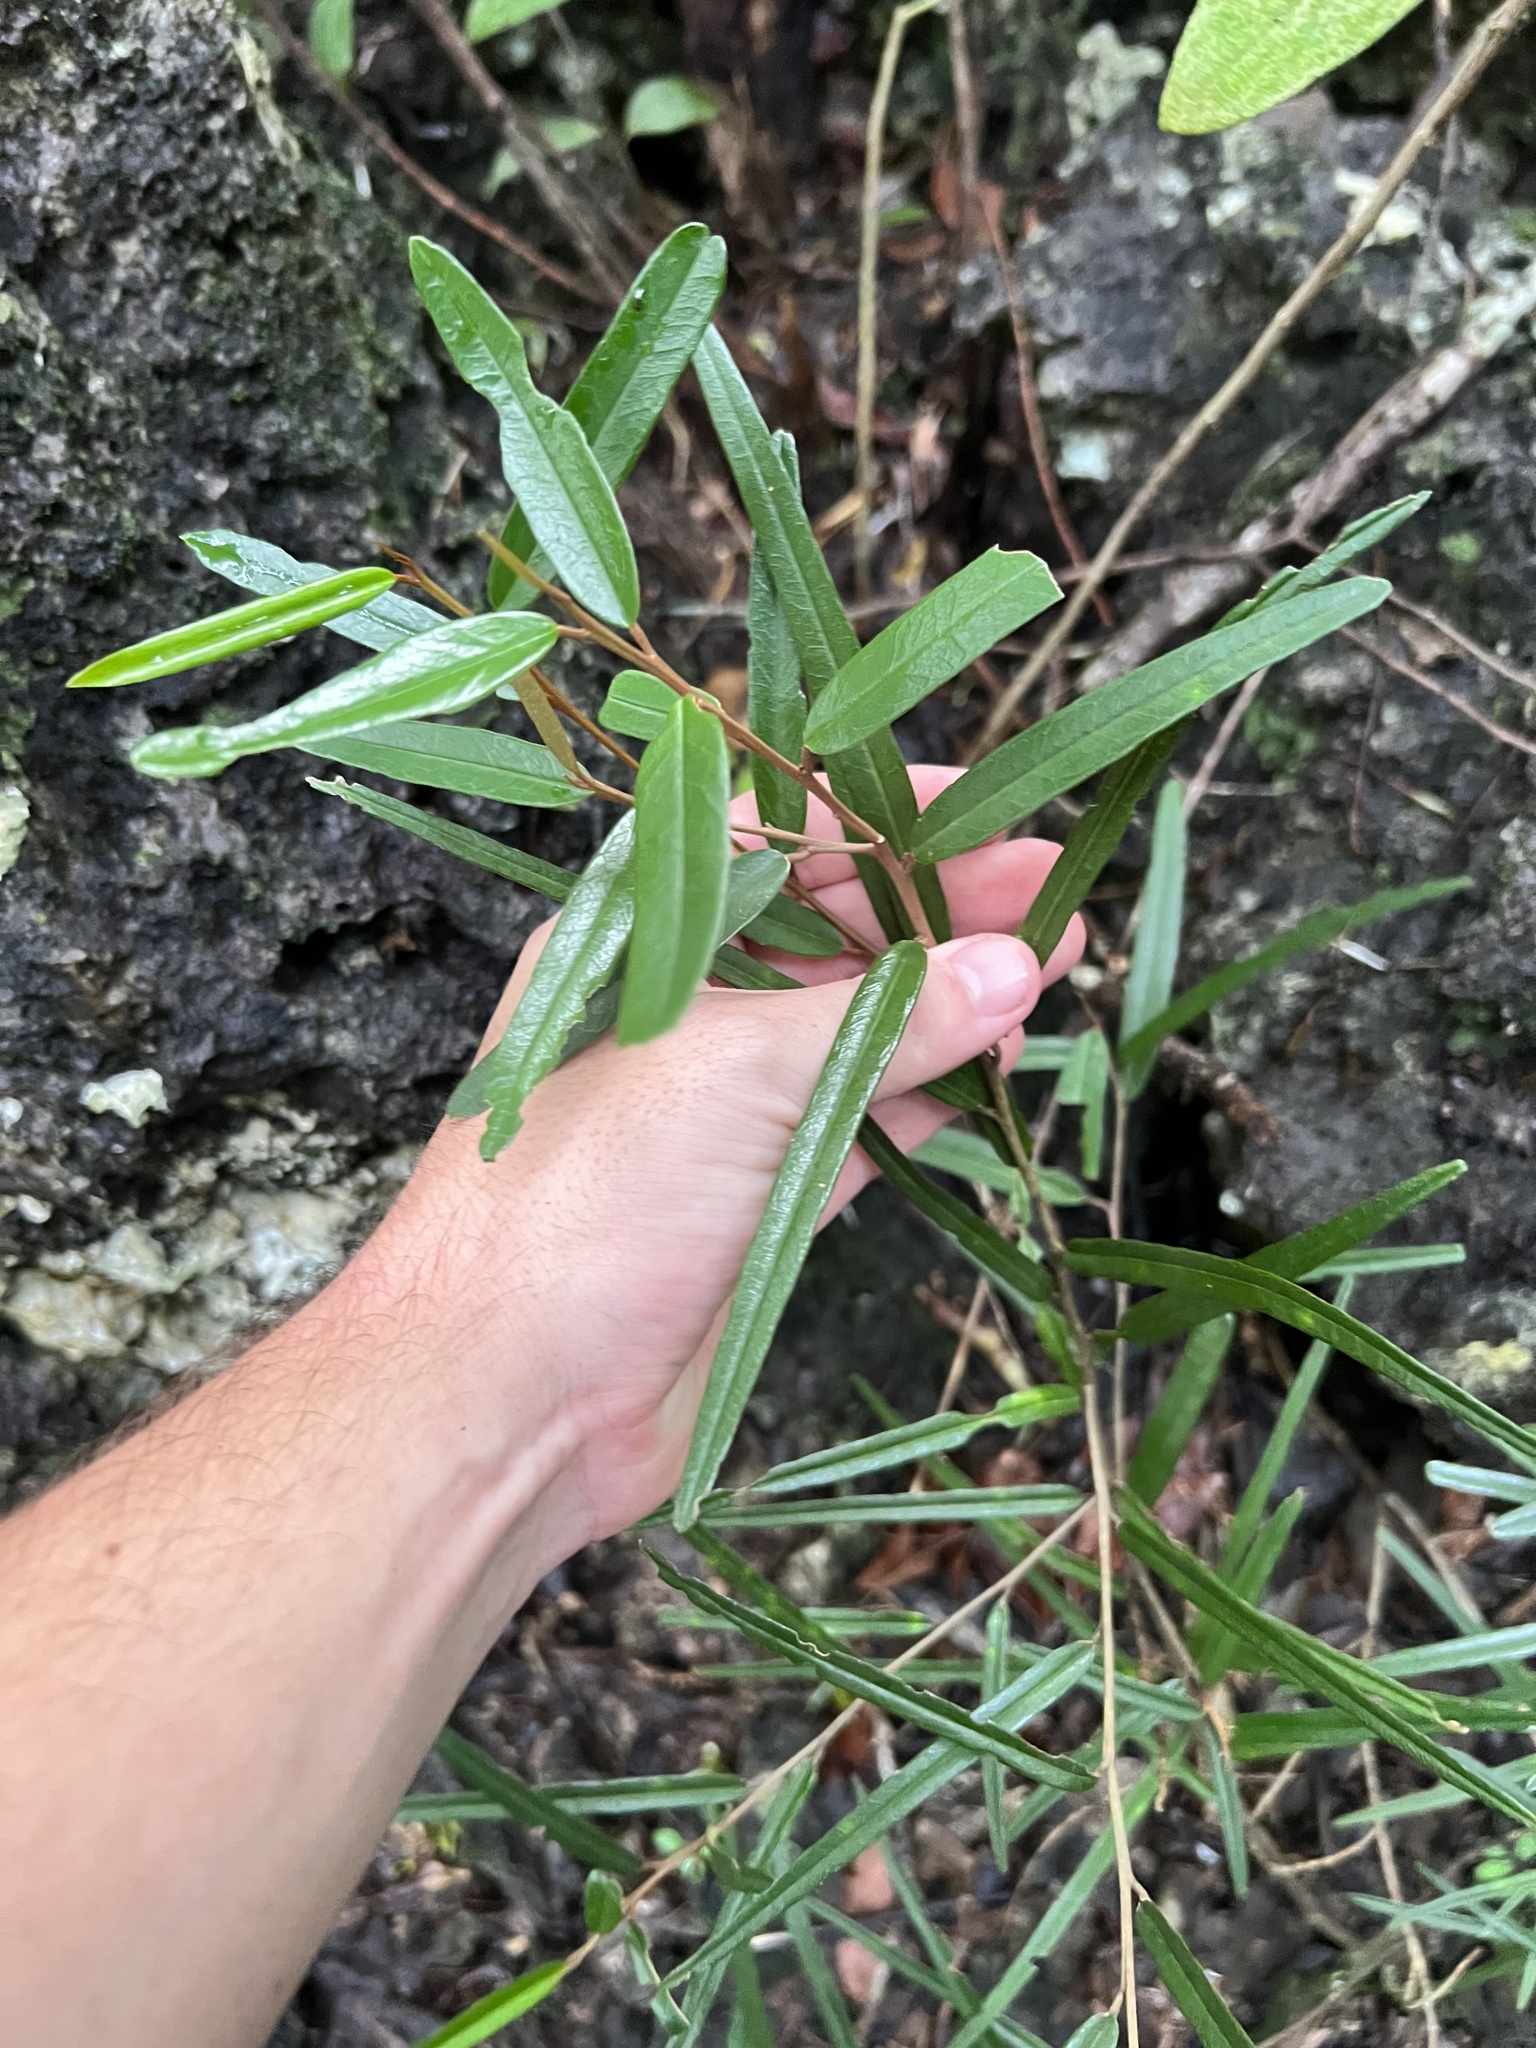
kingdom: Plantae
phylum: Tracheophyta
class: Magnoliopsida
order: Brassicales
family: Capparaceae
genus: Quadrella
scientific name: Quadrella cynophallophora
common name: Black willow
